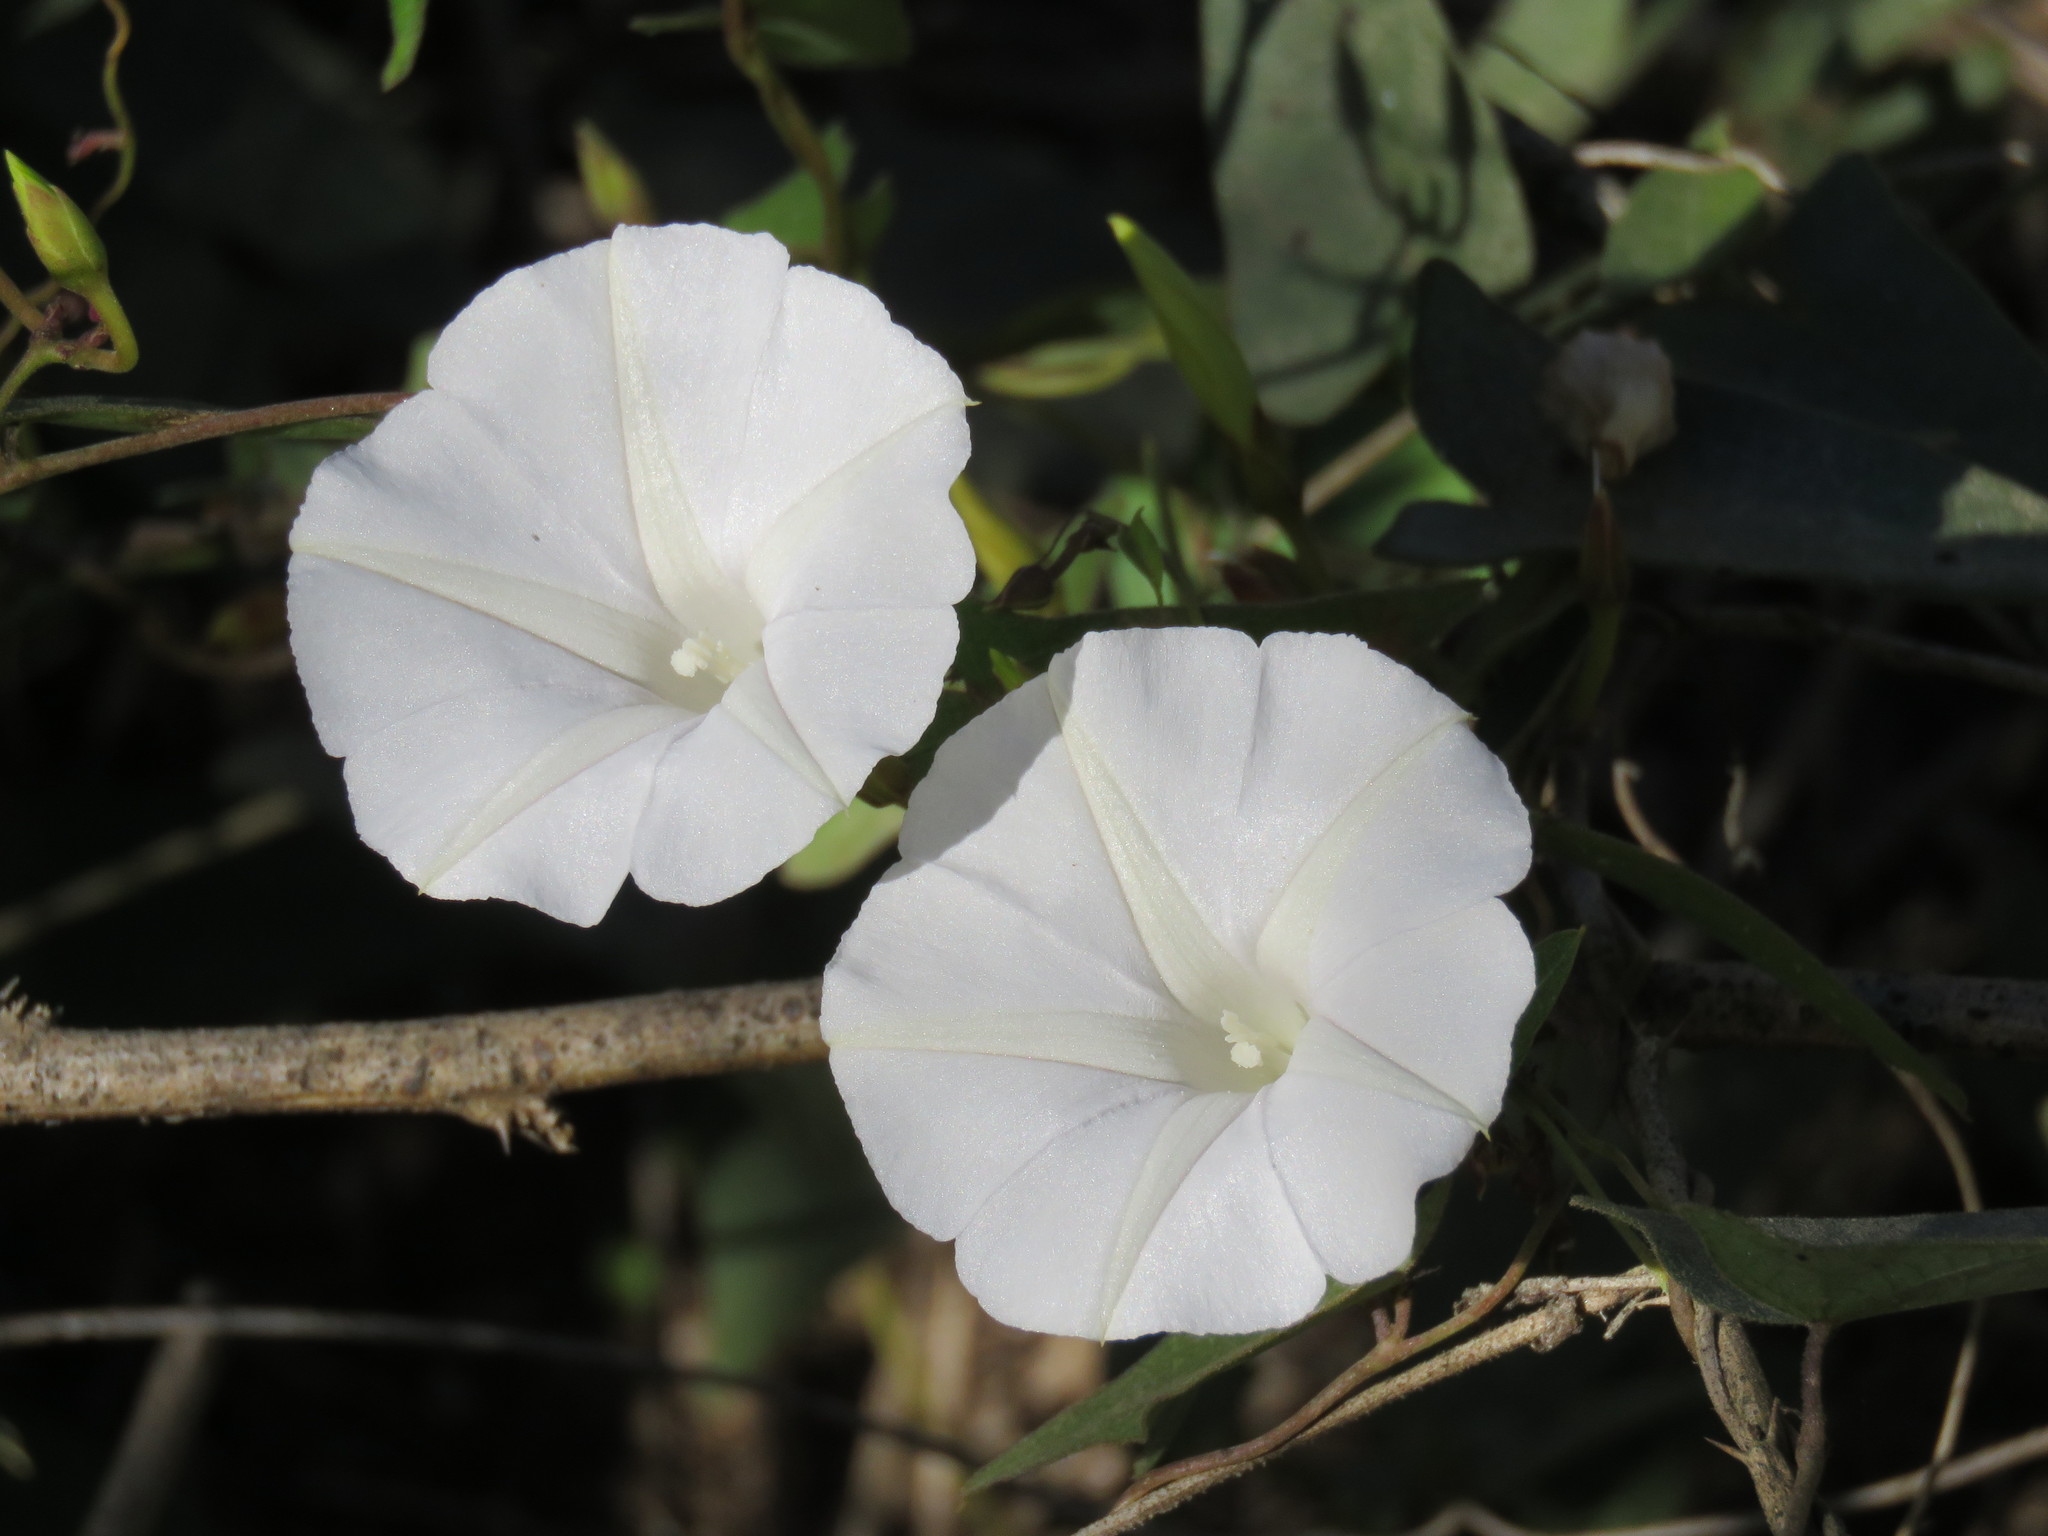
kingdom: Plantae
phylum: Tracheophyta
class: Magnoliopsida
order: Solanales
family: Convolvulaceae
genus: Ipomoea
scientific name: Ipomoea puncticulata
